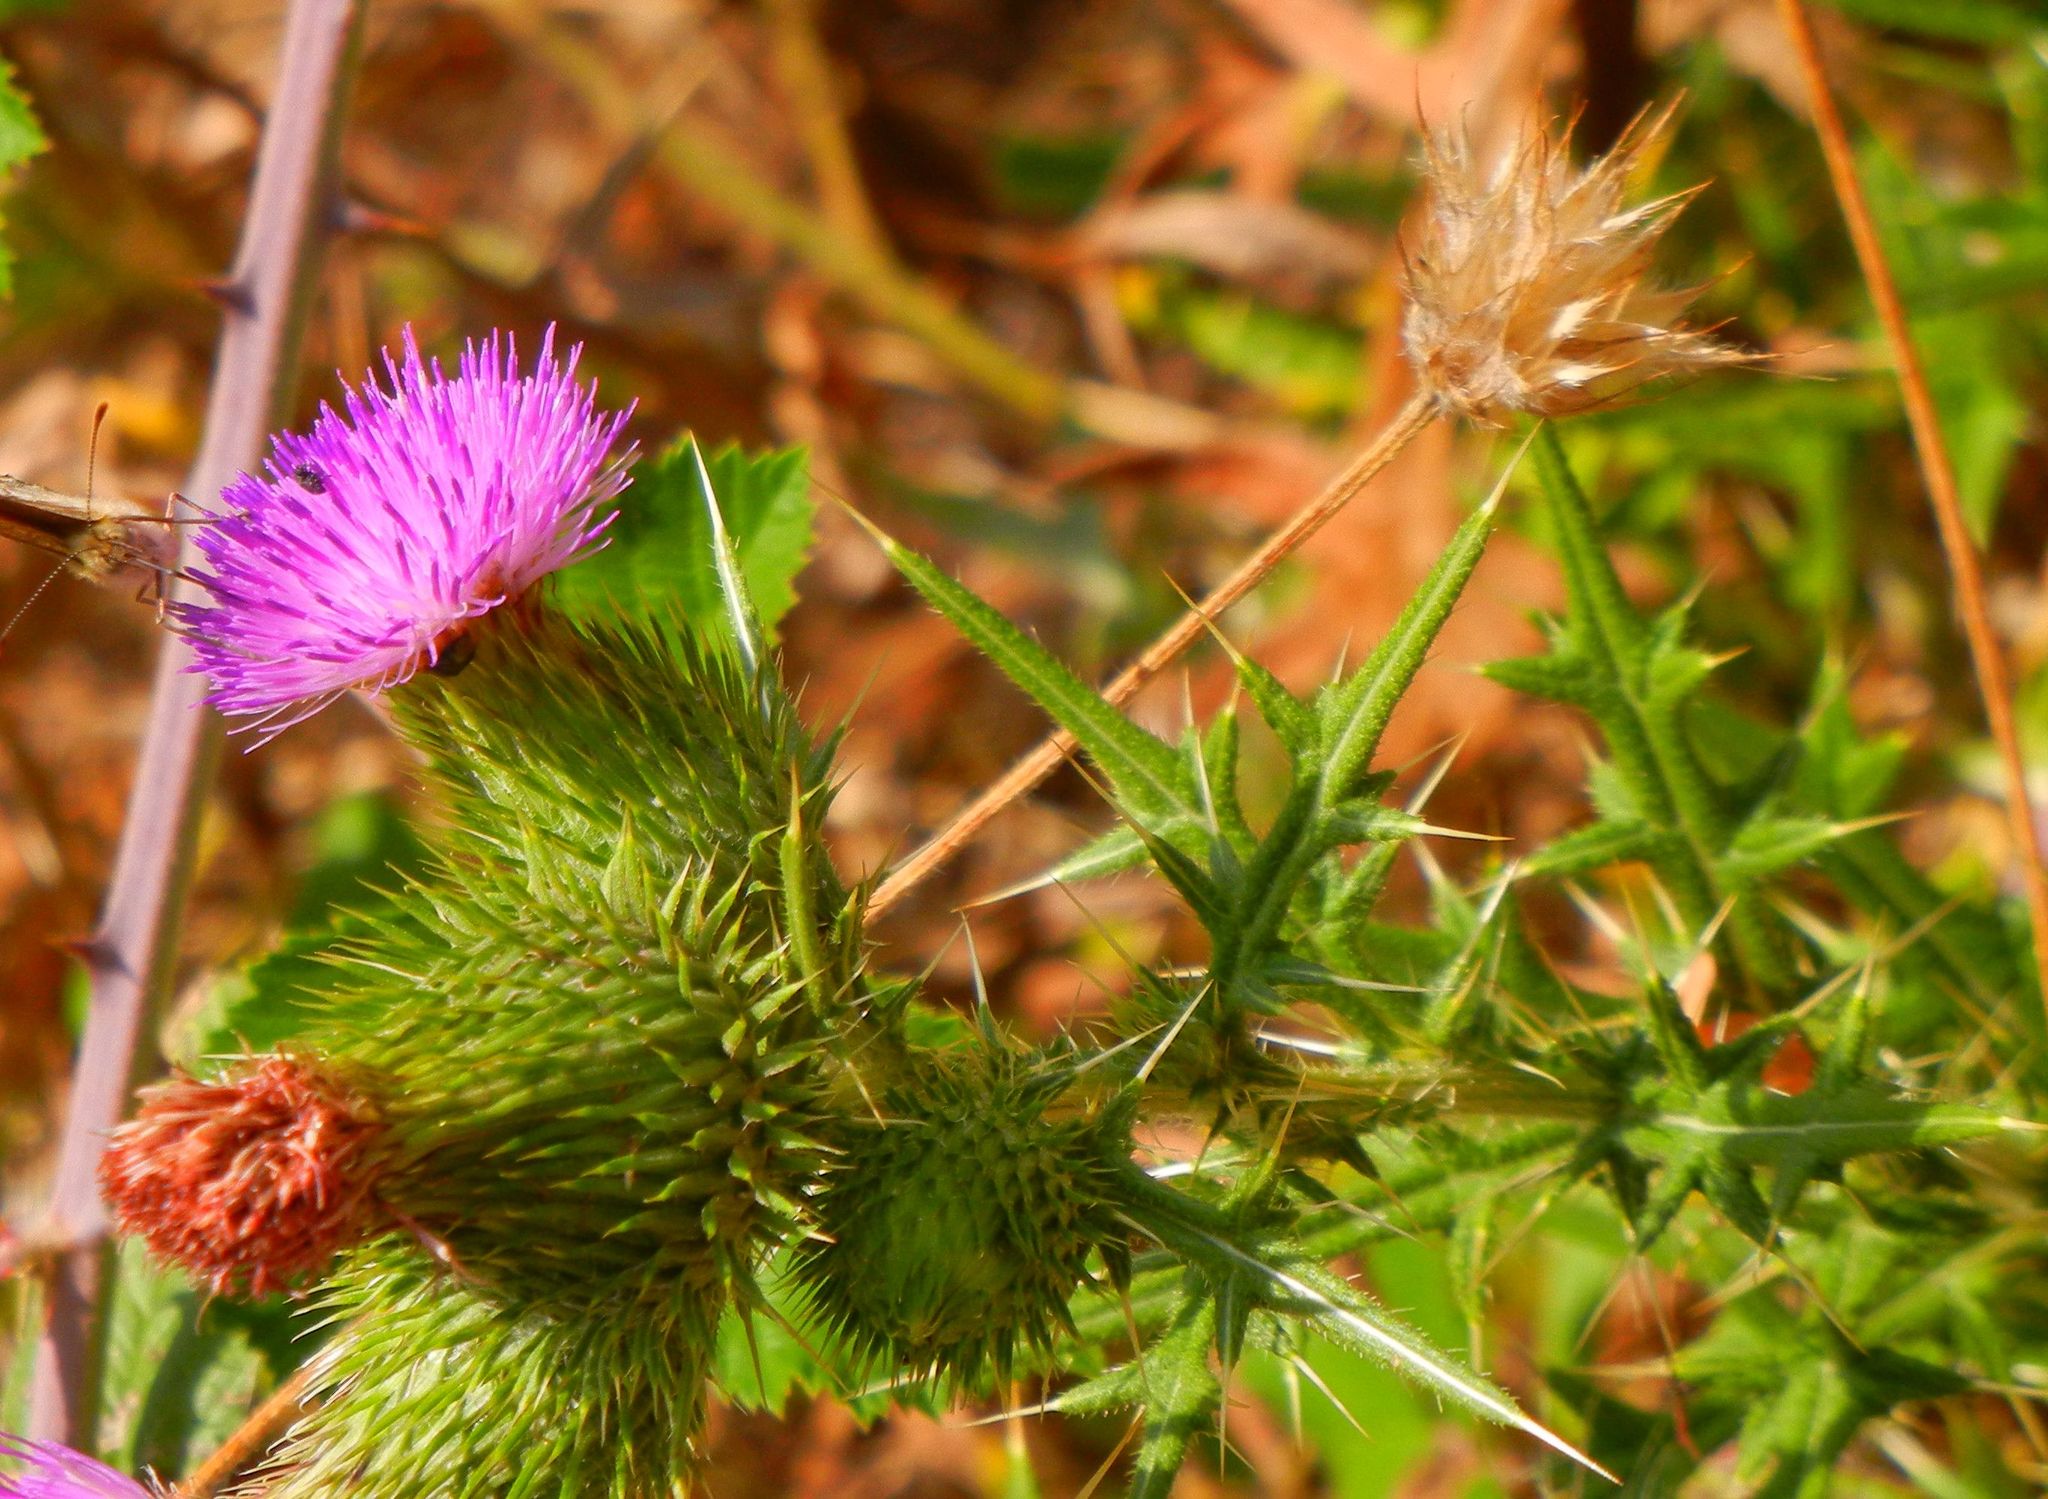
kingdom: Plantae
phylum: Tracheophyta
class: Magnoliopsida
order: Asterales
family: Asteraceae
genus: Cirsium
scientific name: Cirsium vulgare
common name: Bull thistle
